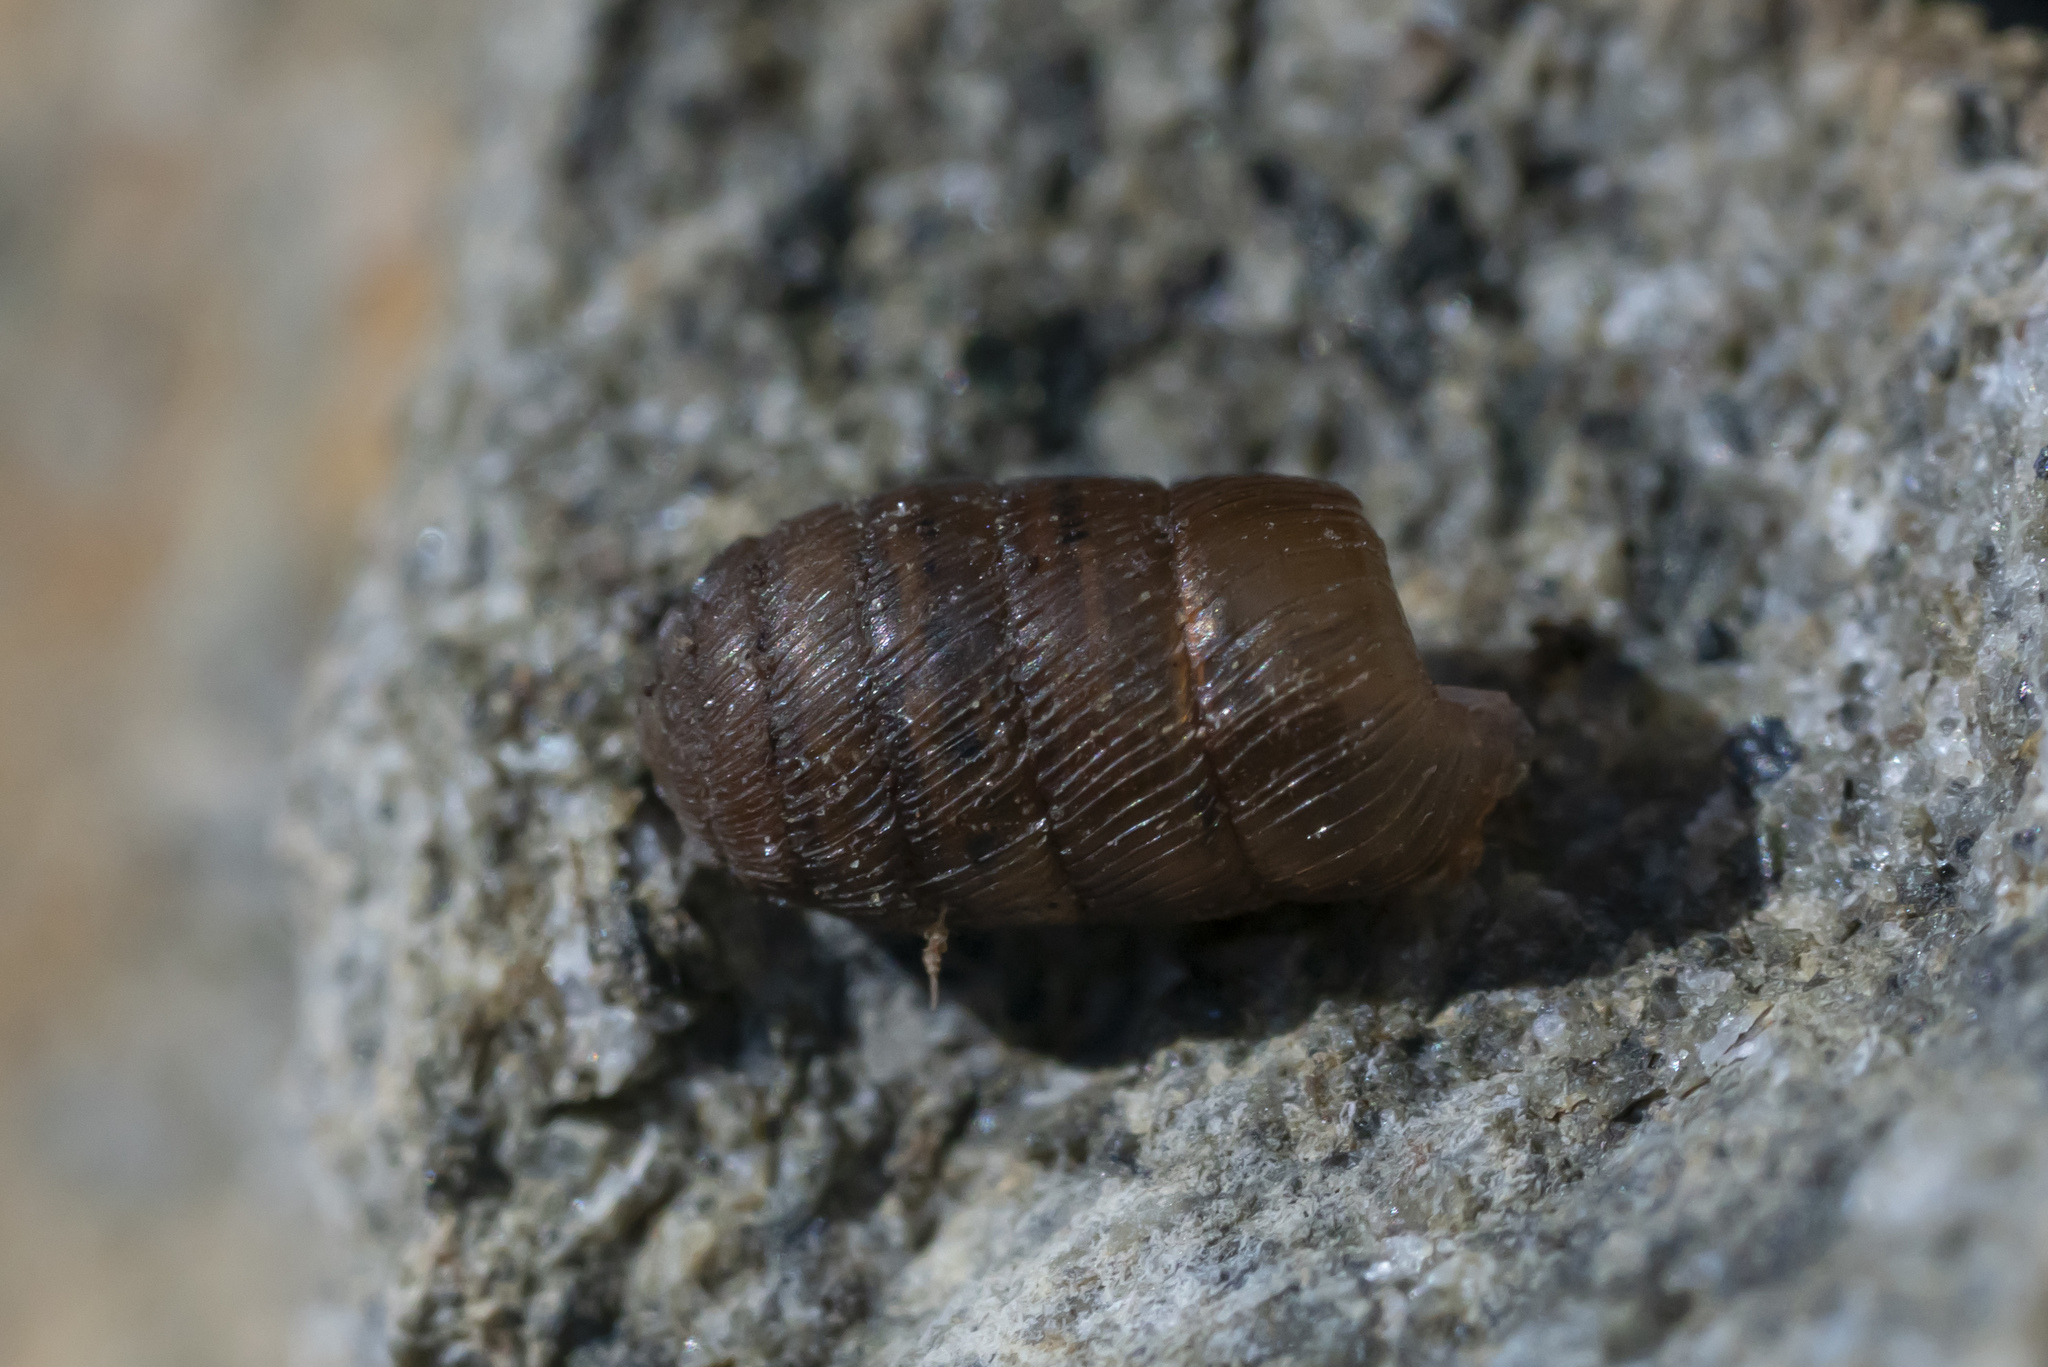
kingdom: Animalia
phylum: Mollusca
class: Gastropoda
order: Stylommatophora
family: Orculidae
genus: Orculella
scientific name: Orculella critica
